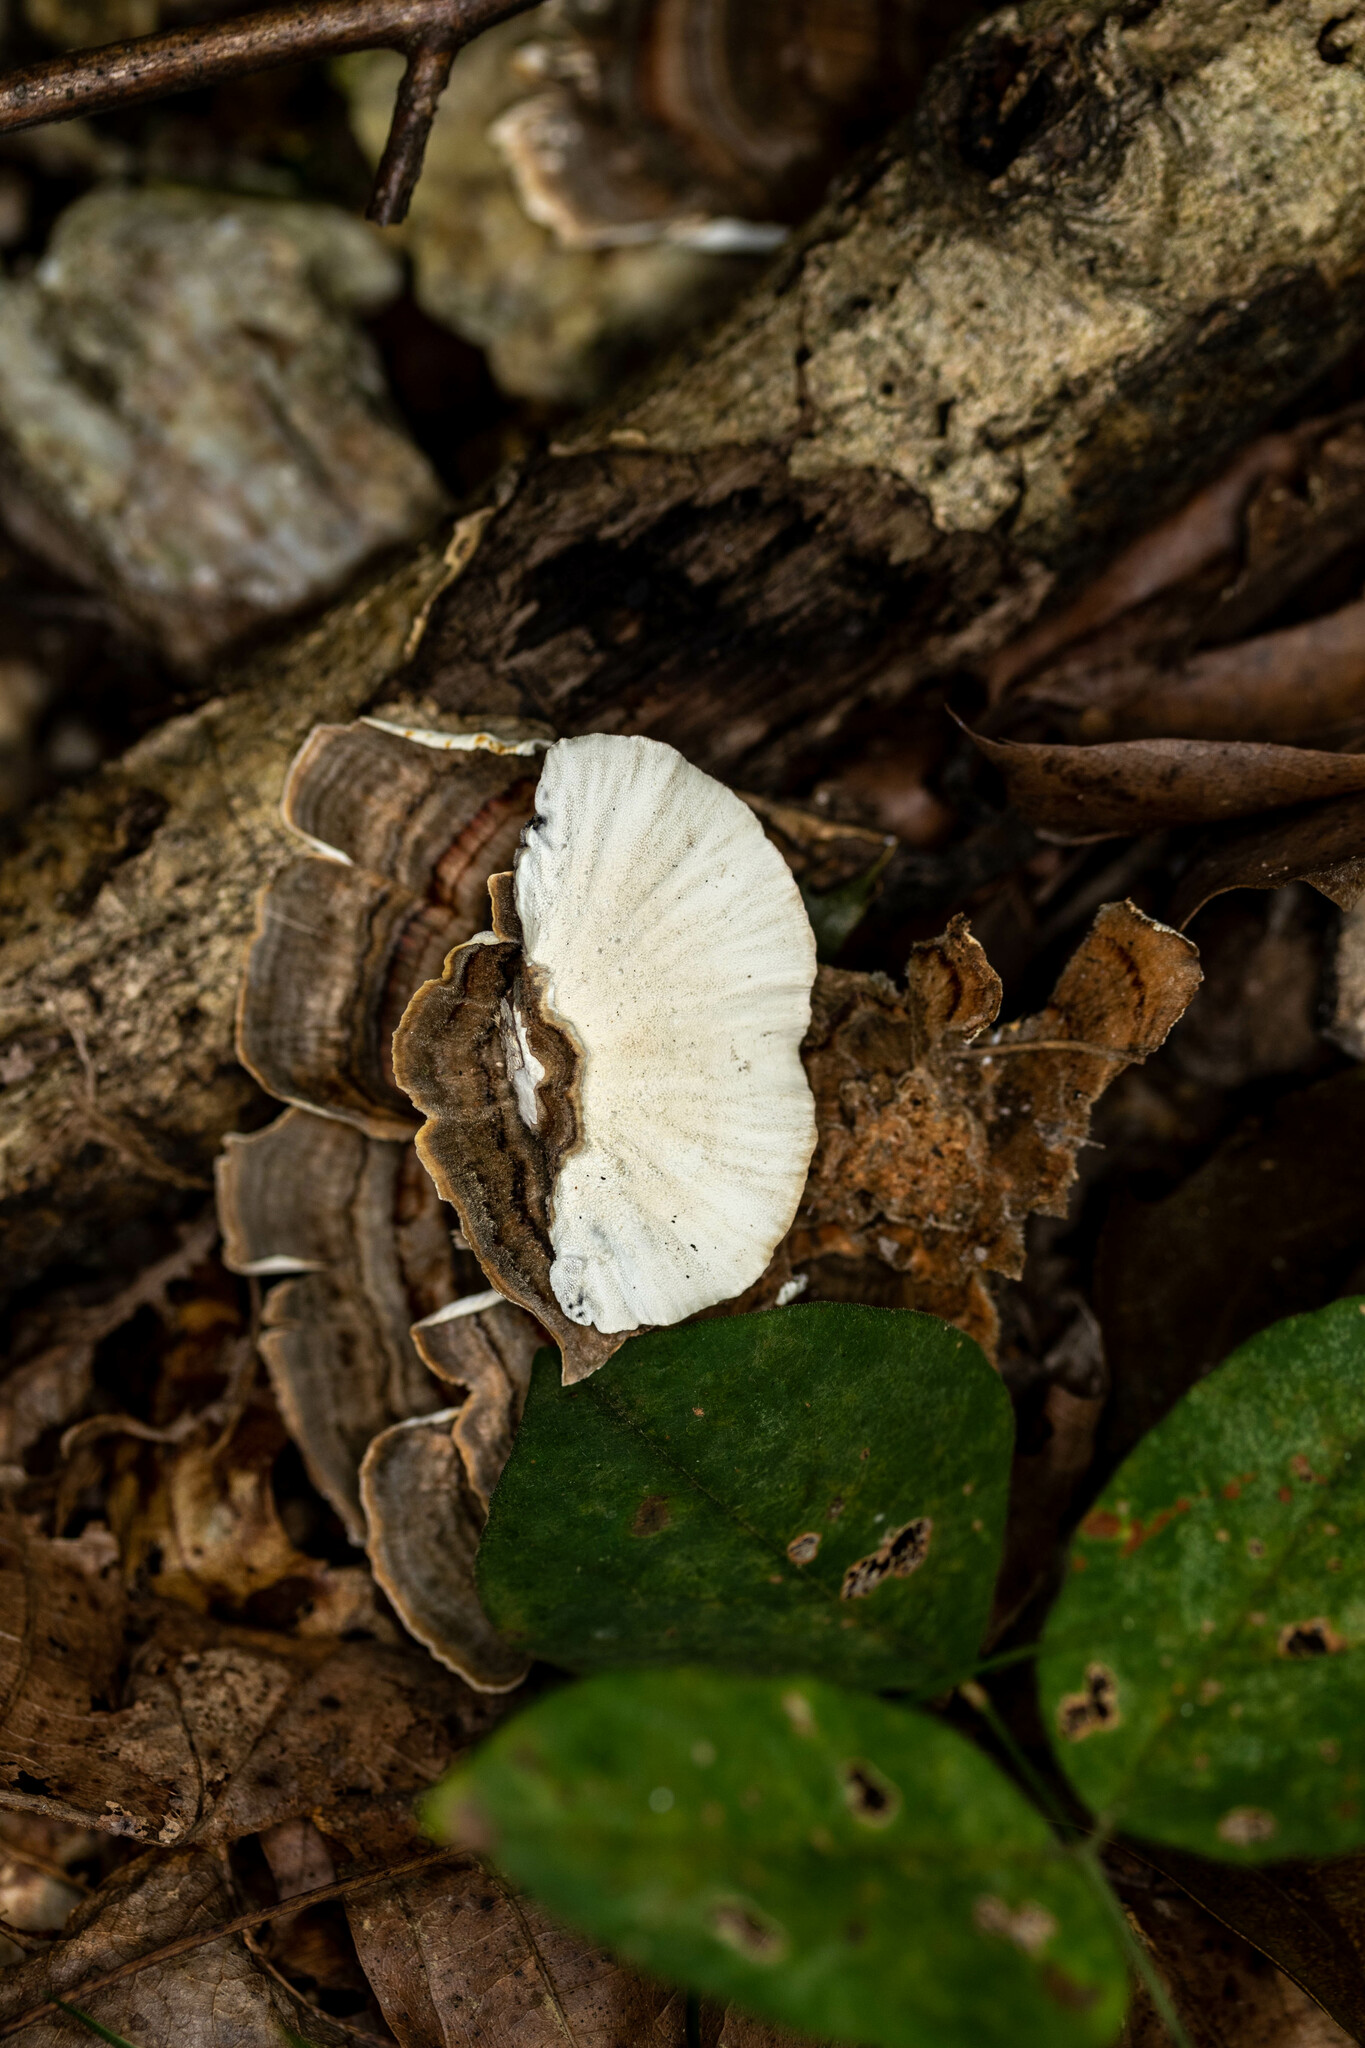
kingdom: Fungi
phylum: Basidiomycota
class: Agaricomycetes
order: Polyporales
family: Polyporaceae
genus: Trametes
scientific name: Trametes versicolor
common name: Turkeytail
